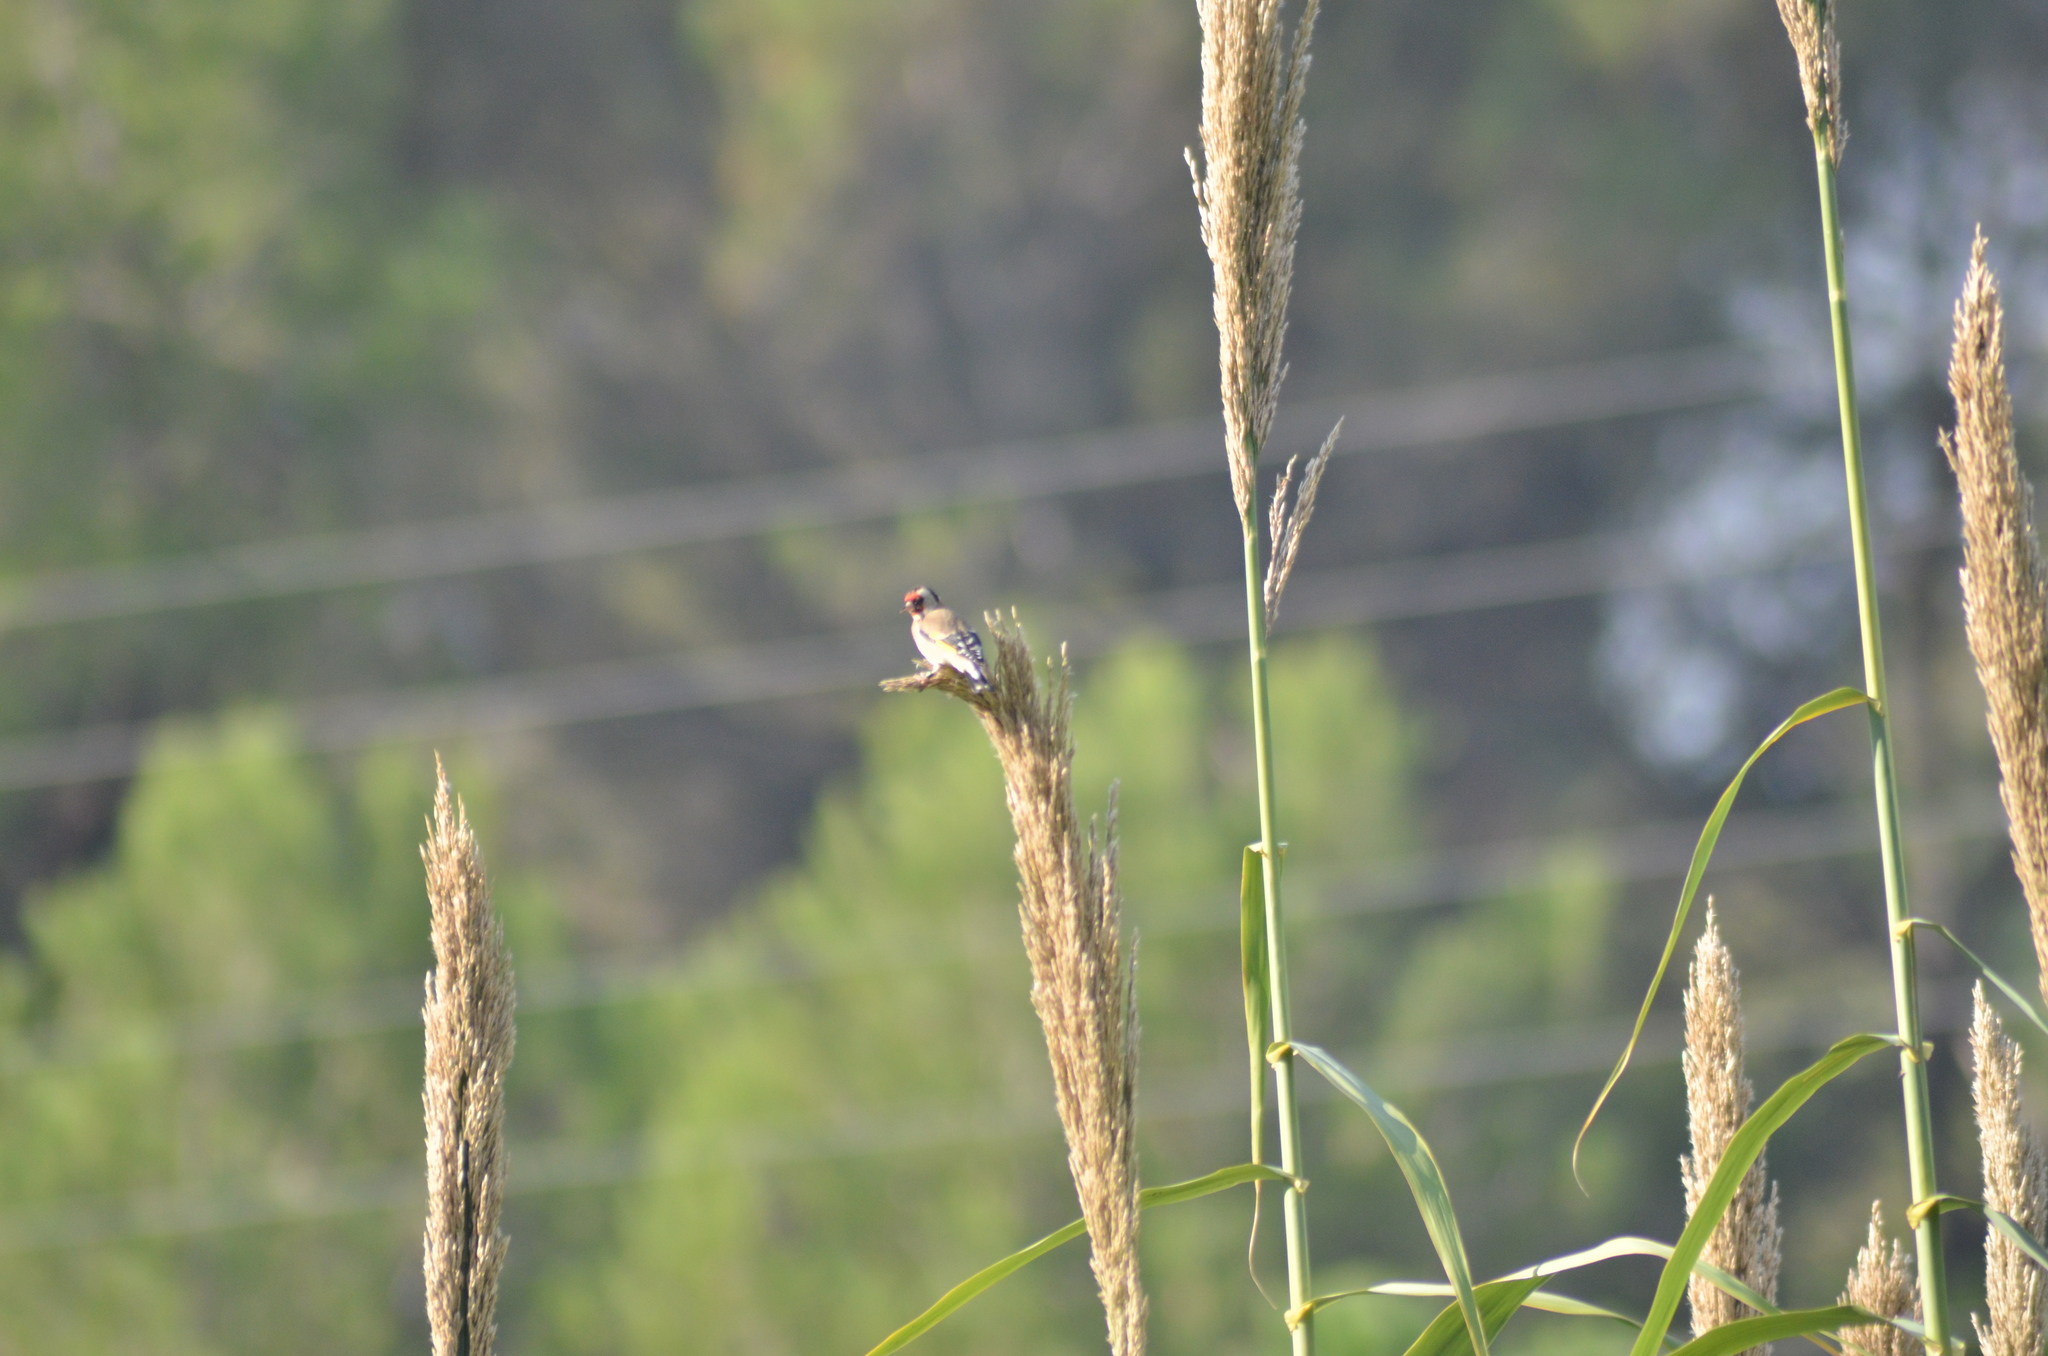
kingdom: Animalia
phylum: Chordata
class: Aves
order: Passeriformes
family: Fringillidae
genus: Carduelis
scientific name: Carduelis carduelis
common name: European goldfinch
